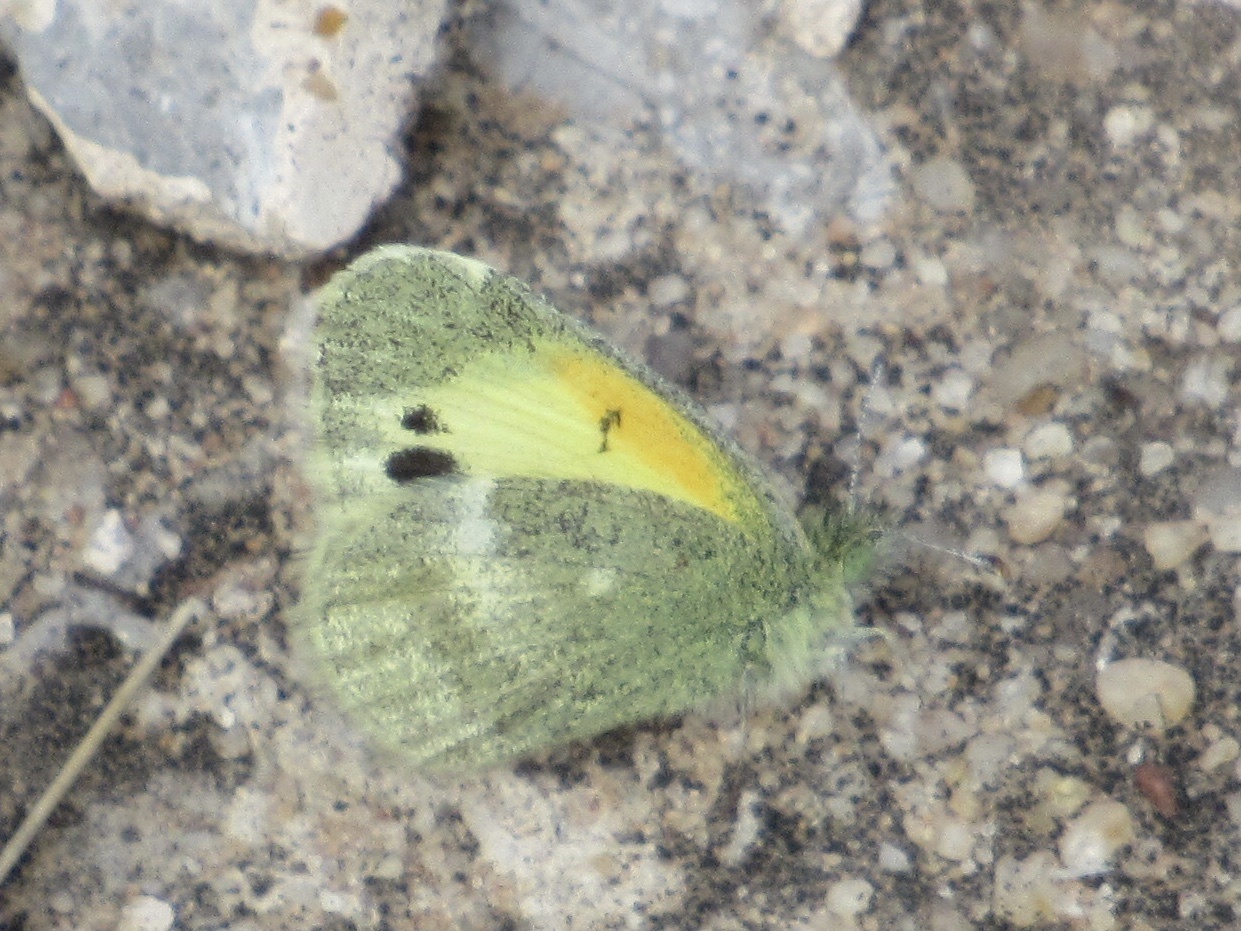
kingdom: Animalia
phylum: Arthropoda
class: Insecta
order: Lepidoptera
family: Pieridae
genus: Nathalis
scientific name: Nathalis iole
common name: Dainty sulphur
